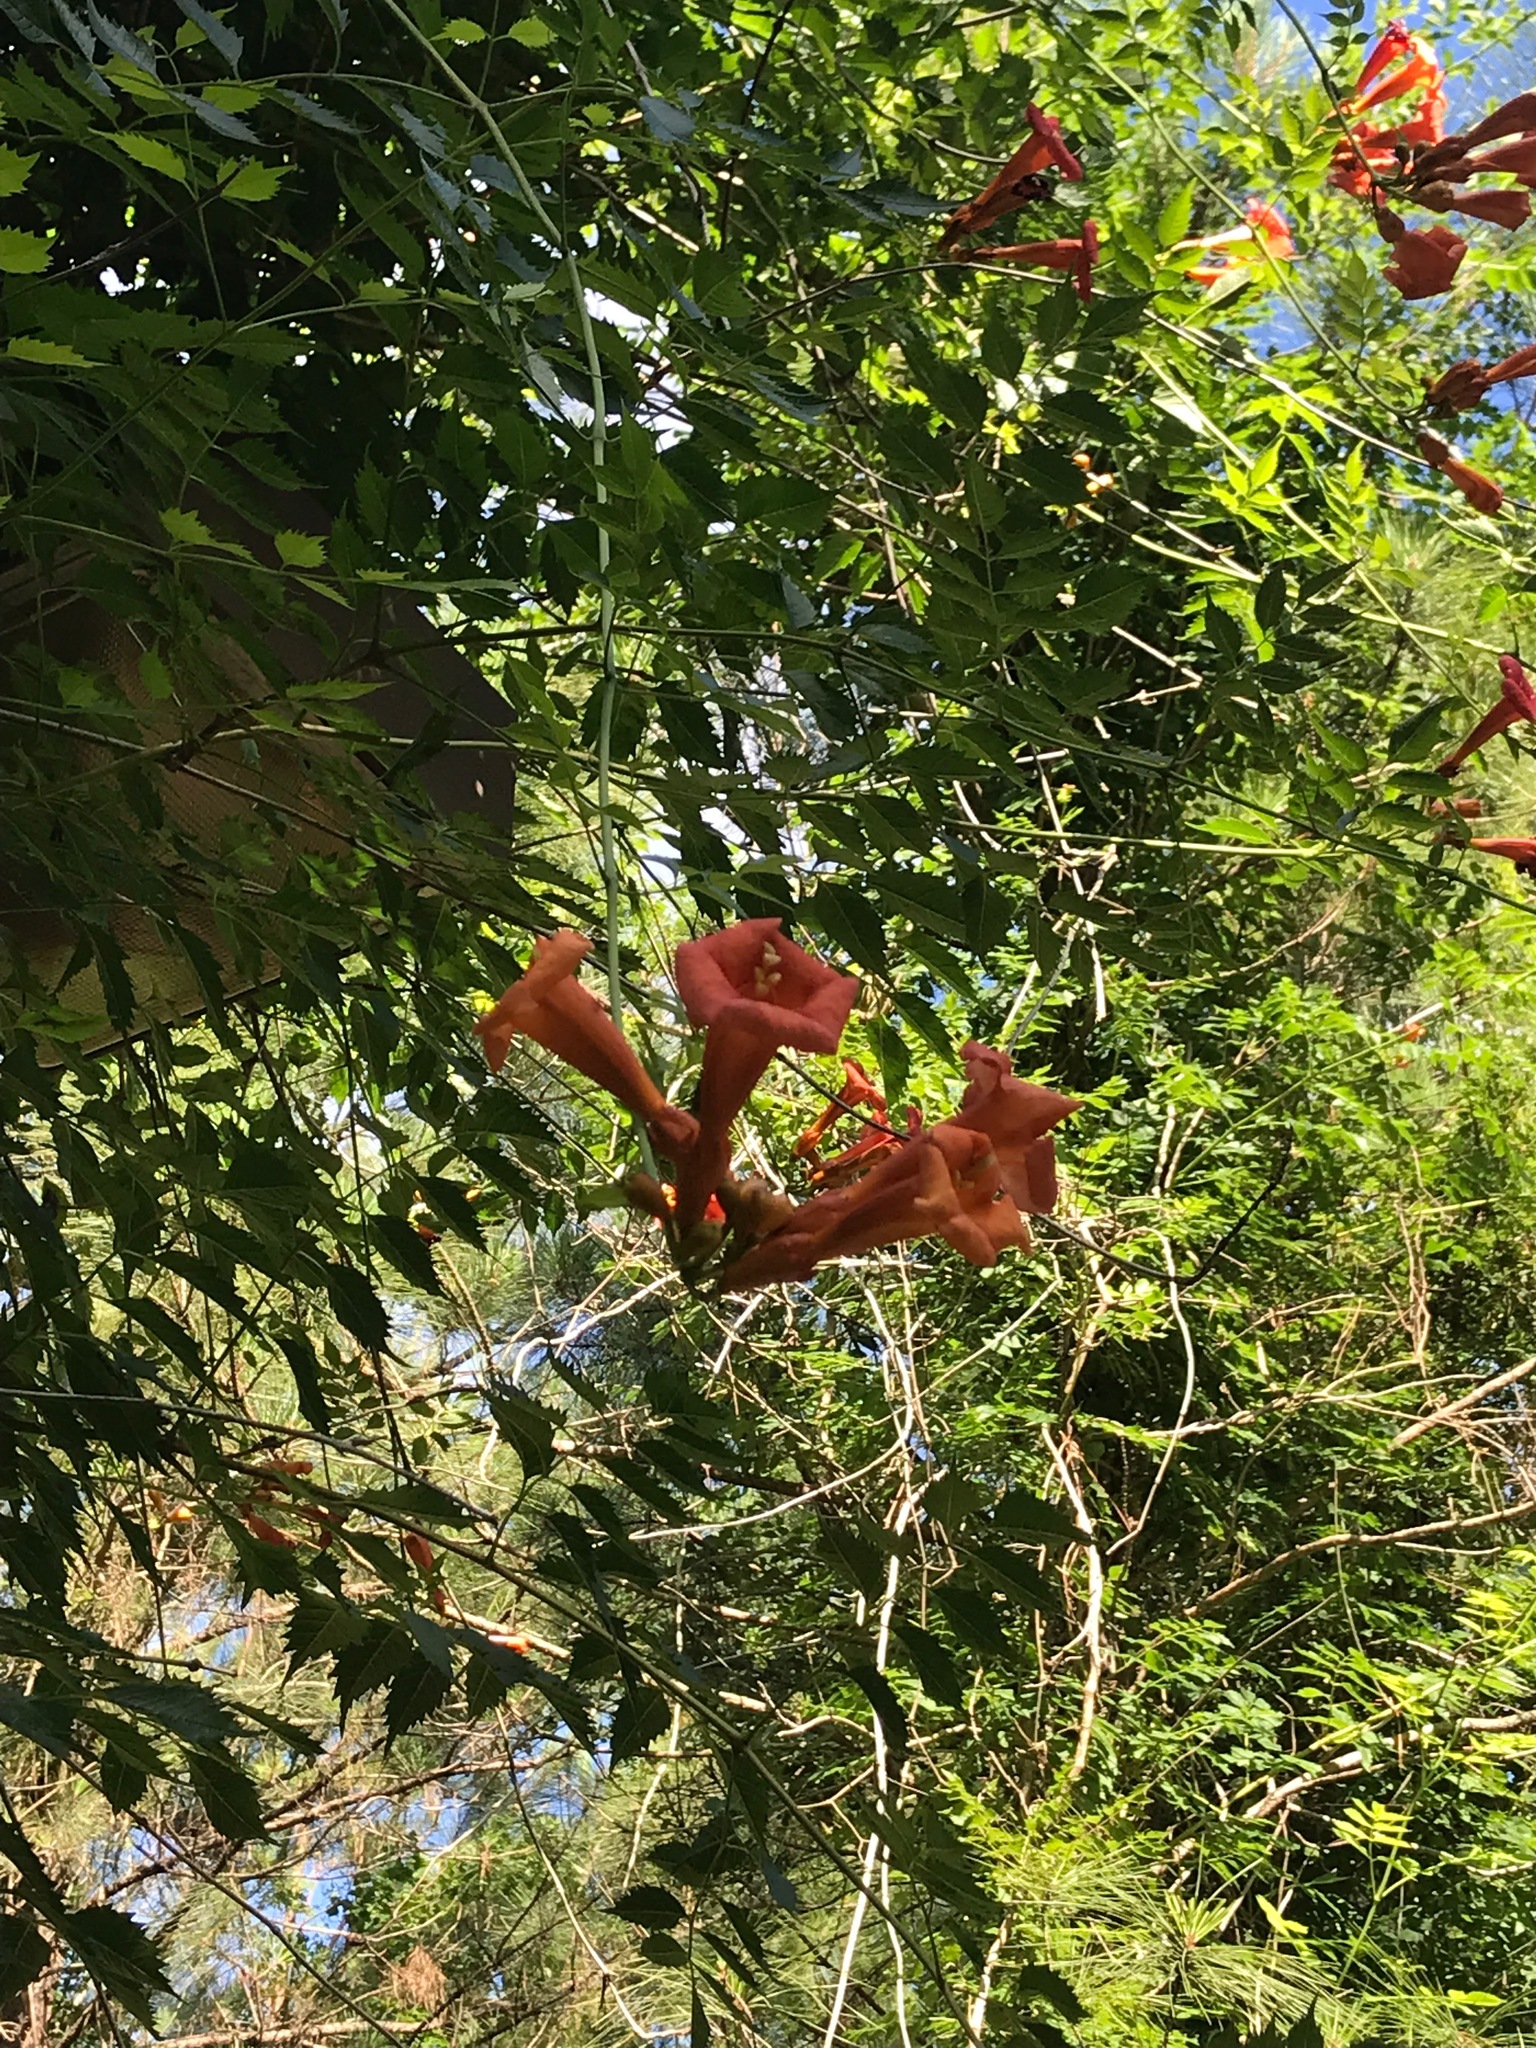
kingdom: Plantae
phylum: Tracheophyta
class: Magnoliopsida
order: Lamiales
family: Bignoniaceae
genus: Campsis
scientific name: Campsis radicans
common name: Trumpet-creeper
